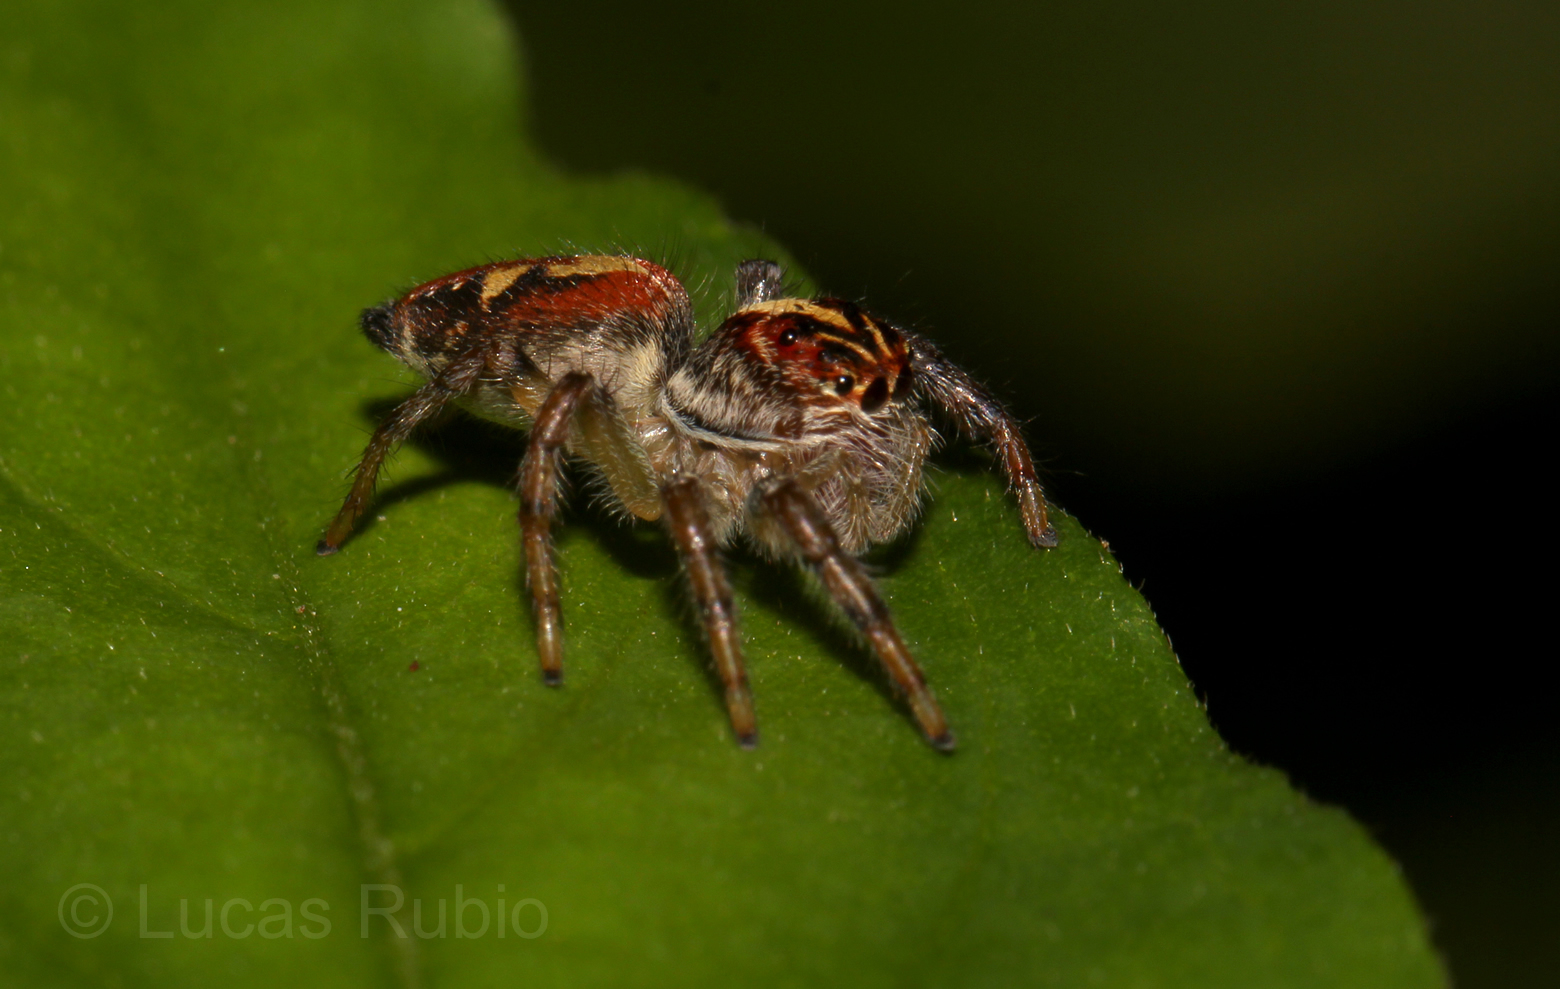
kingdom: Animalia
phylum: Arthropoda
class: Arachnida
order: Araneae
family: Salticidae
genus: Frigga
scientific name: Frigga quintensis
